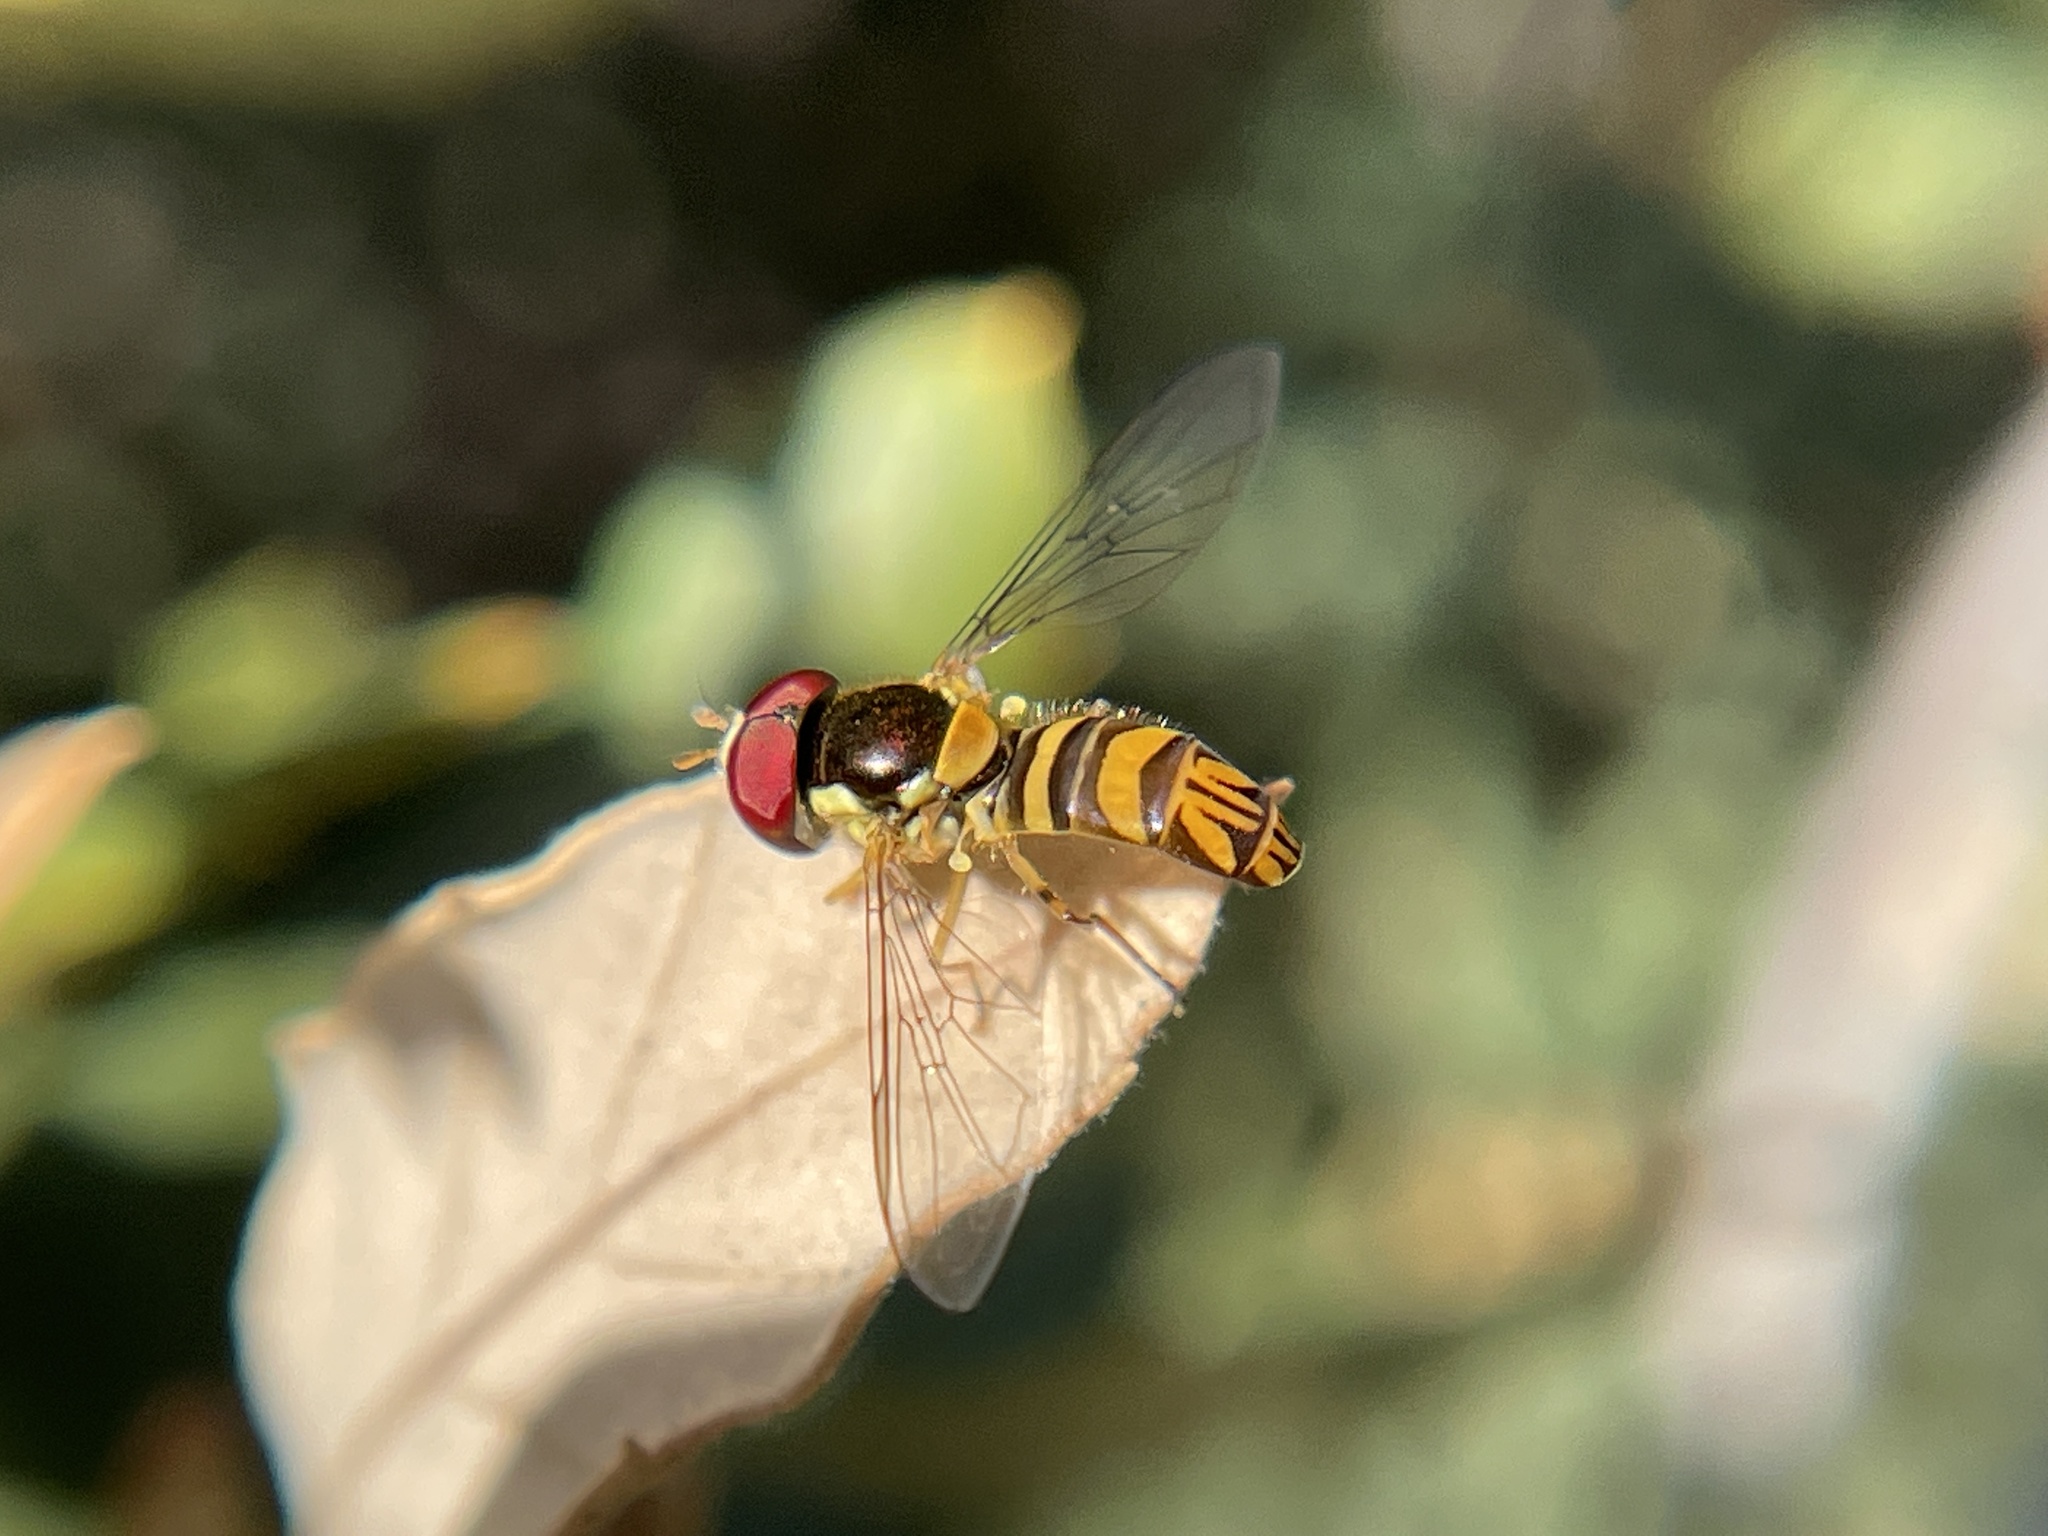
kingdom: Animalia
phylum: Arthropoda
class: Insecta
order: Diptera
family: Syrphidae
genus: Allograpta
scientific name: Allograpta obliqua
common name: Common oblique syrphid
